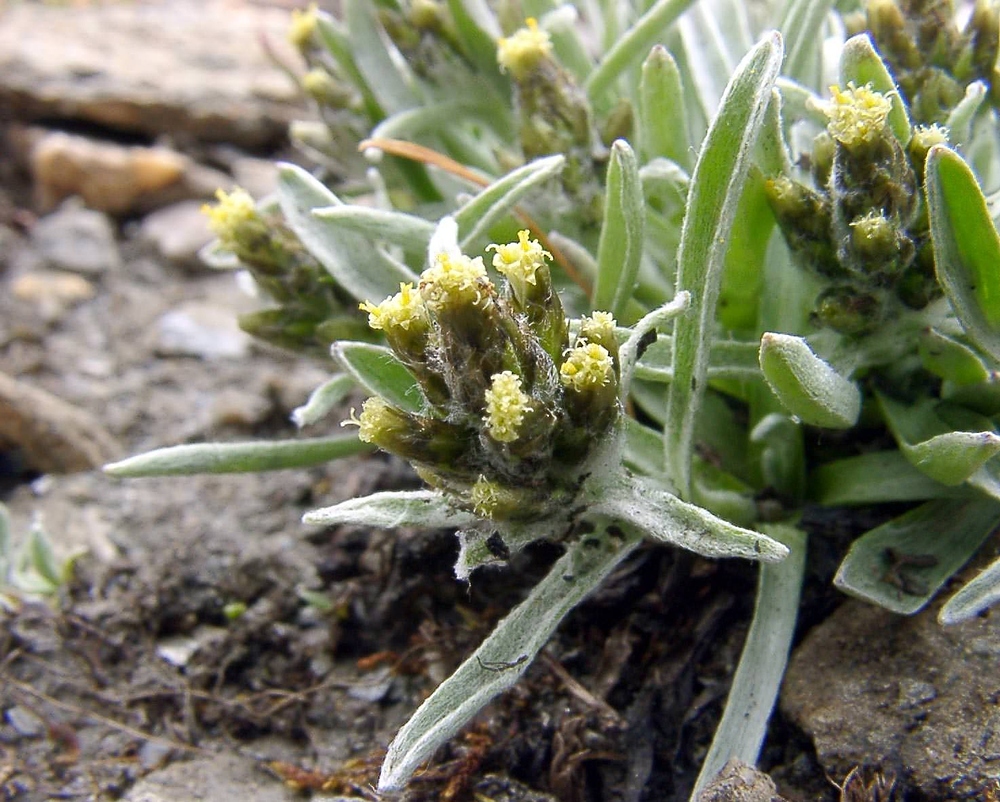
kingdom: Plantae
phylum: Tracheophyta
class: Magnoliopsida
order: Asterales
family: Asteraceae
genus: Omalotheca
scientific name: Omalotheca supina
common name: Alpine arctic-cudweed
